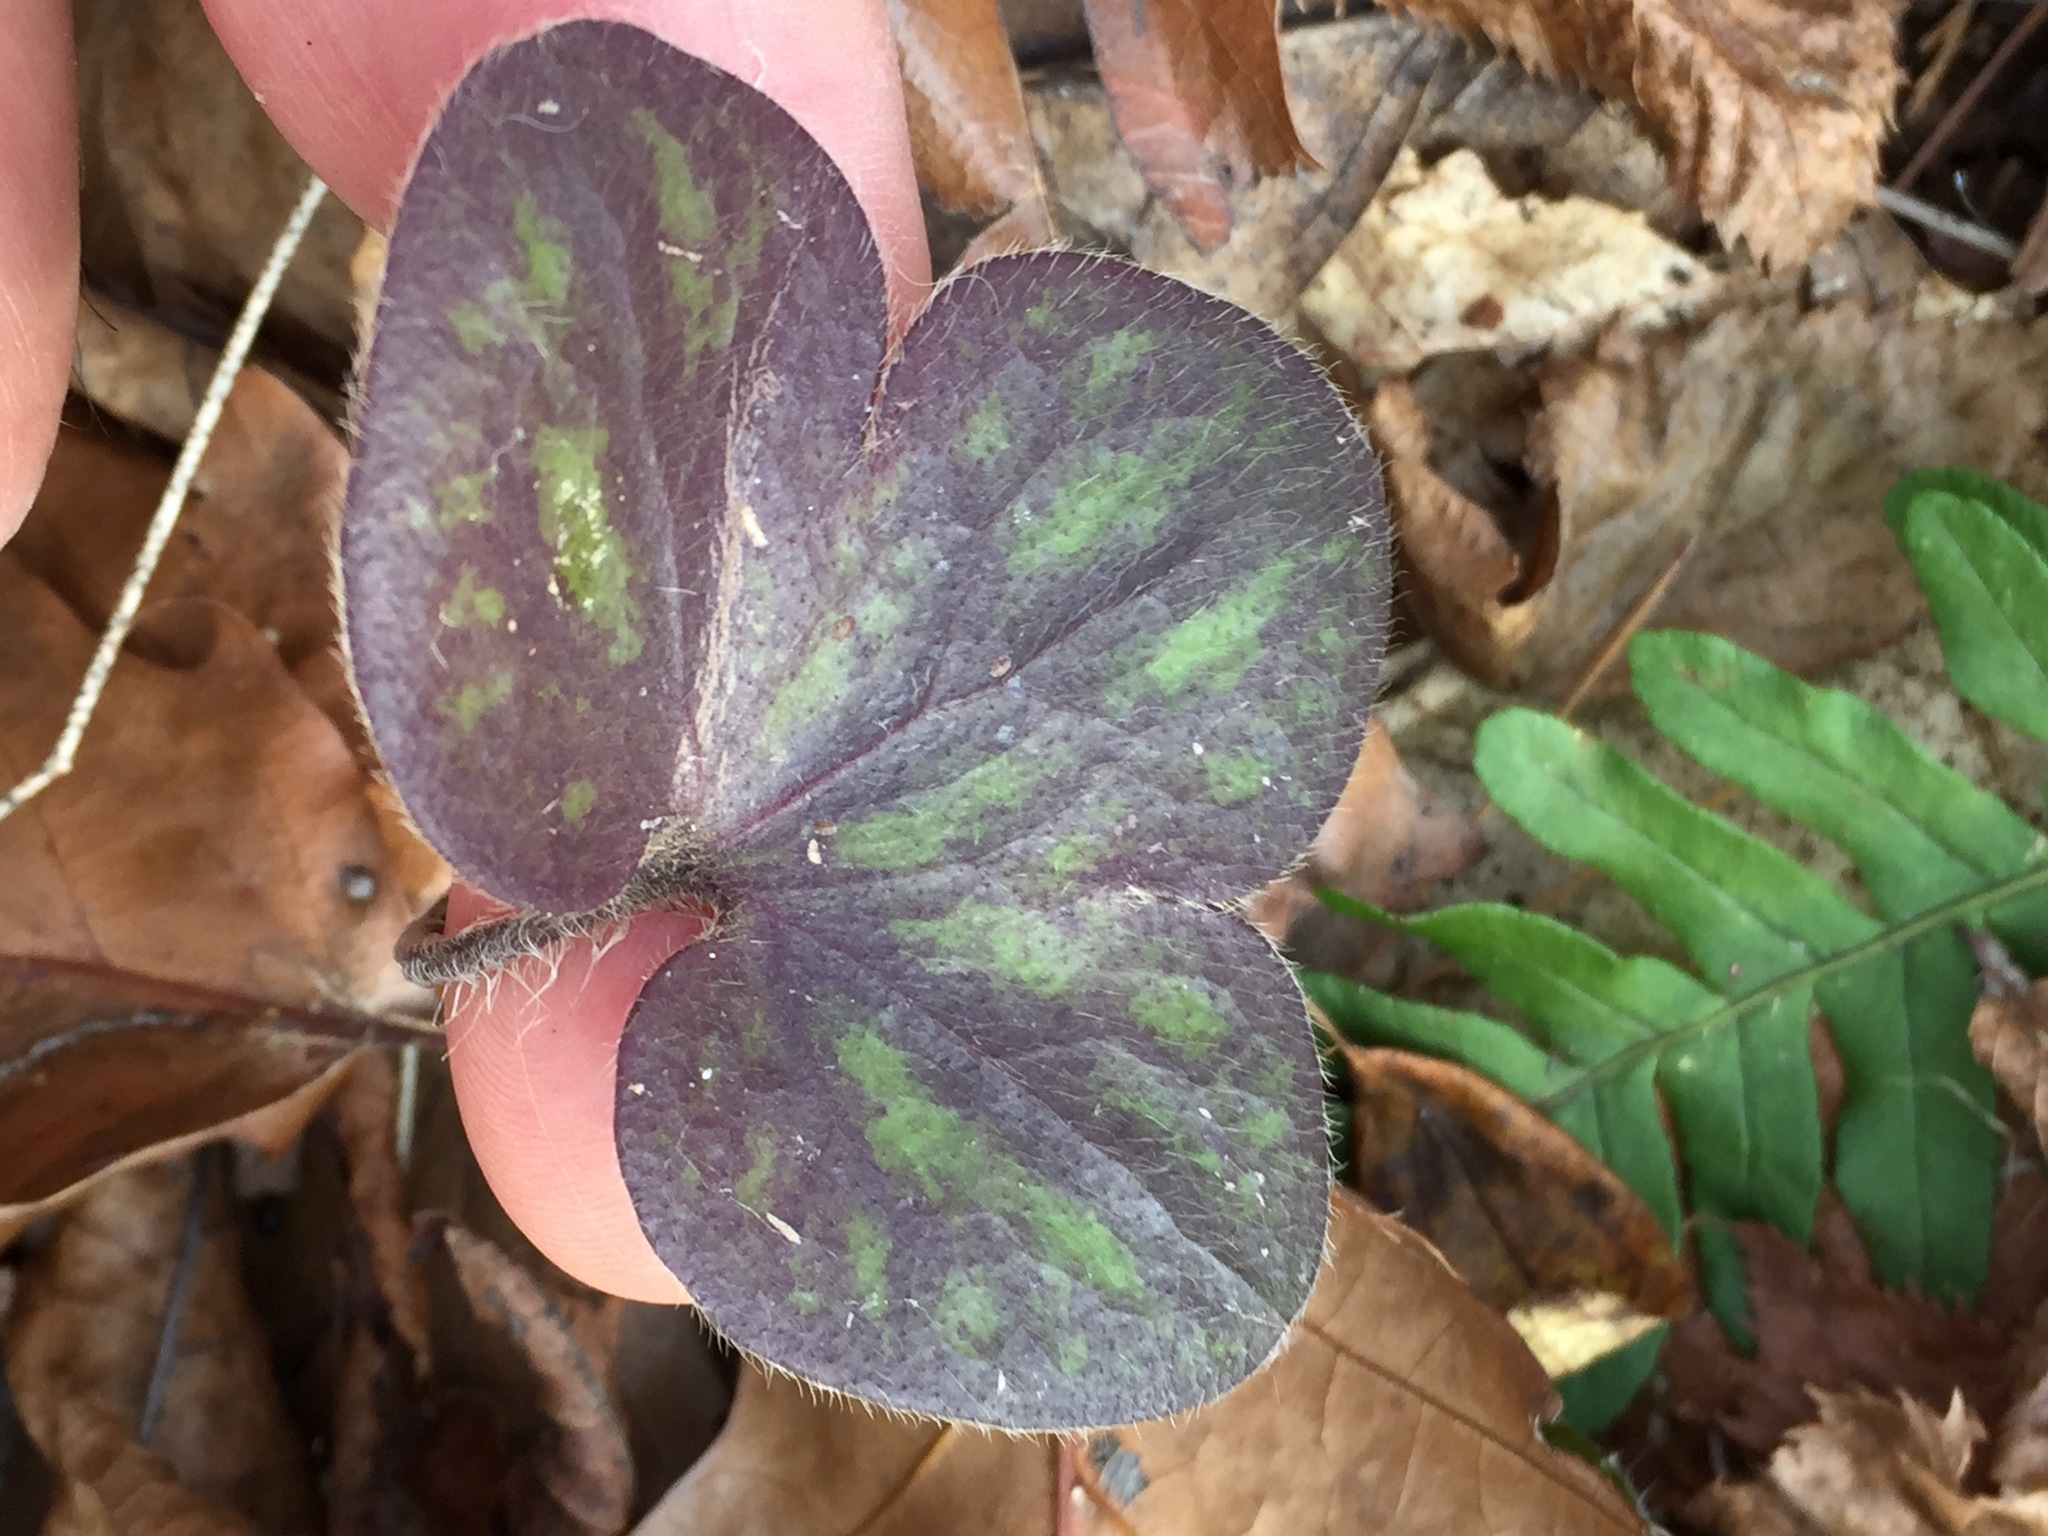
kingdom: Plantae
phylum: Tracheophyta
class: Magnoliopsida
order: Ranunculales
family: Ranunculaceae
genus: Hepatica
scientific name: Hepatica americana
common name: American hepatica
